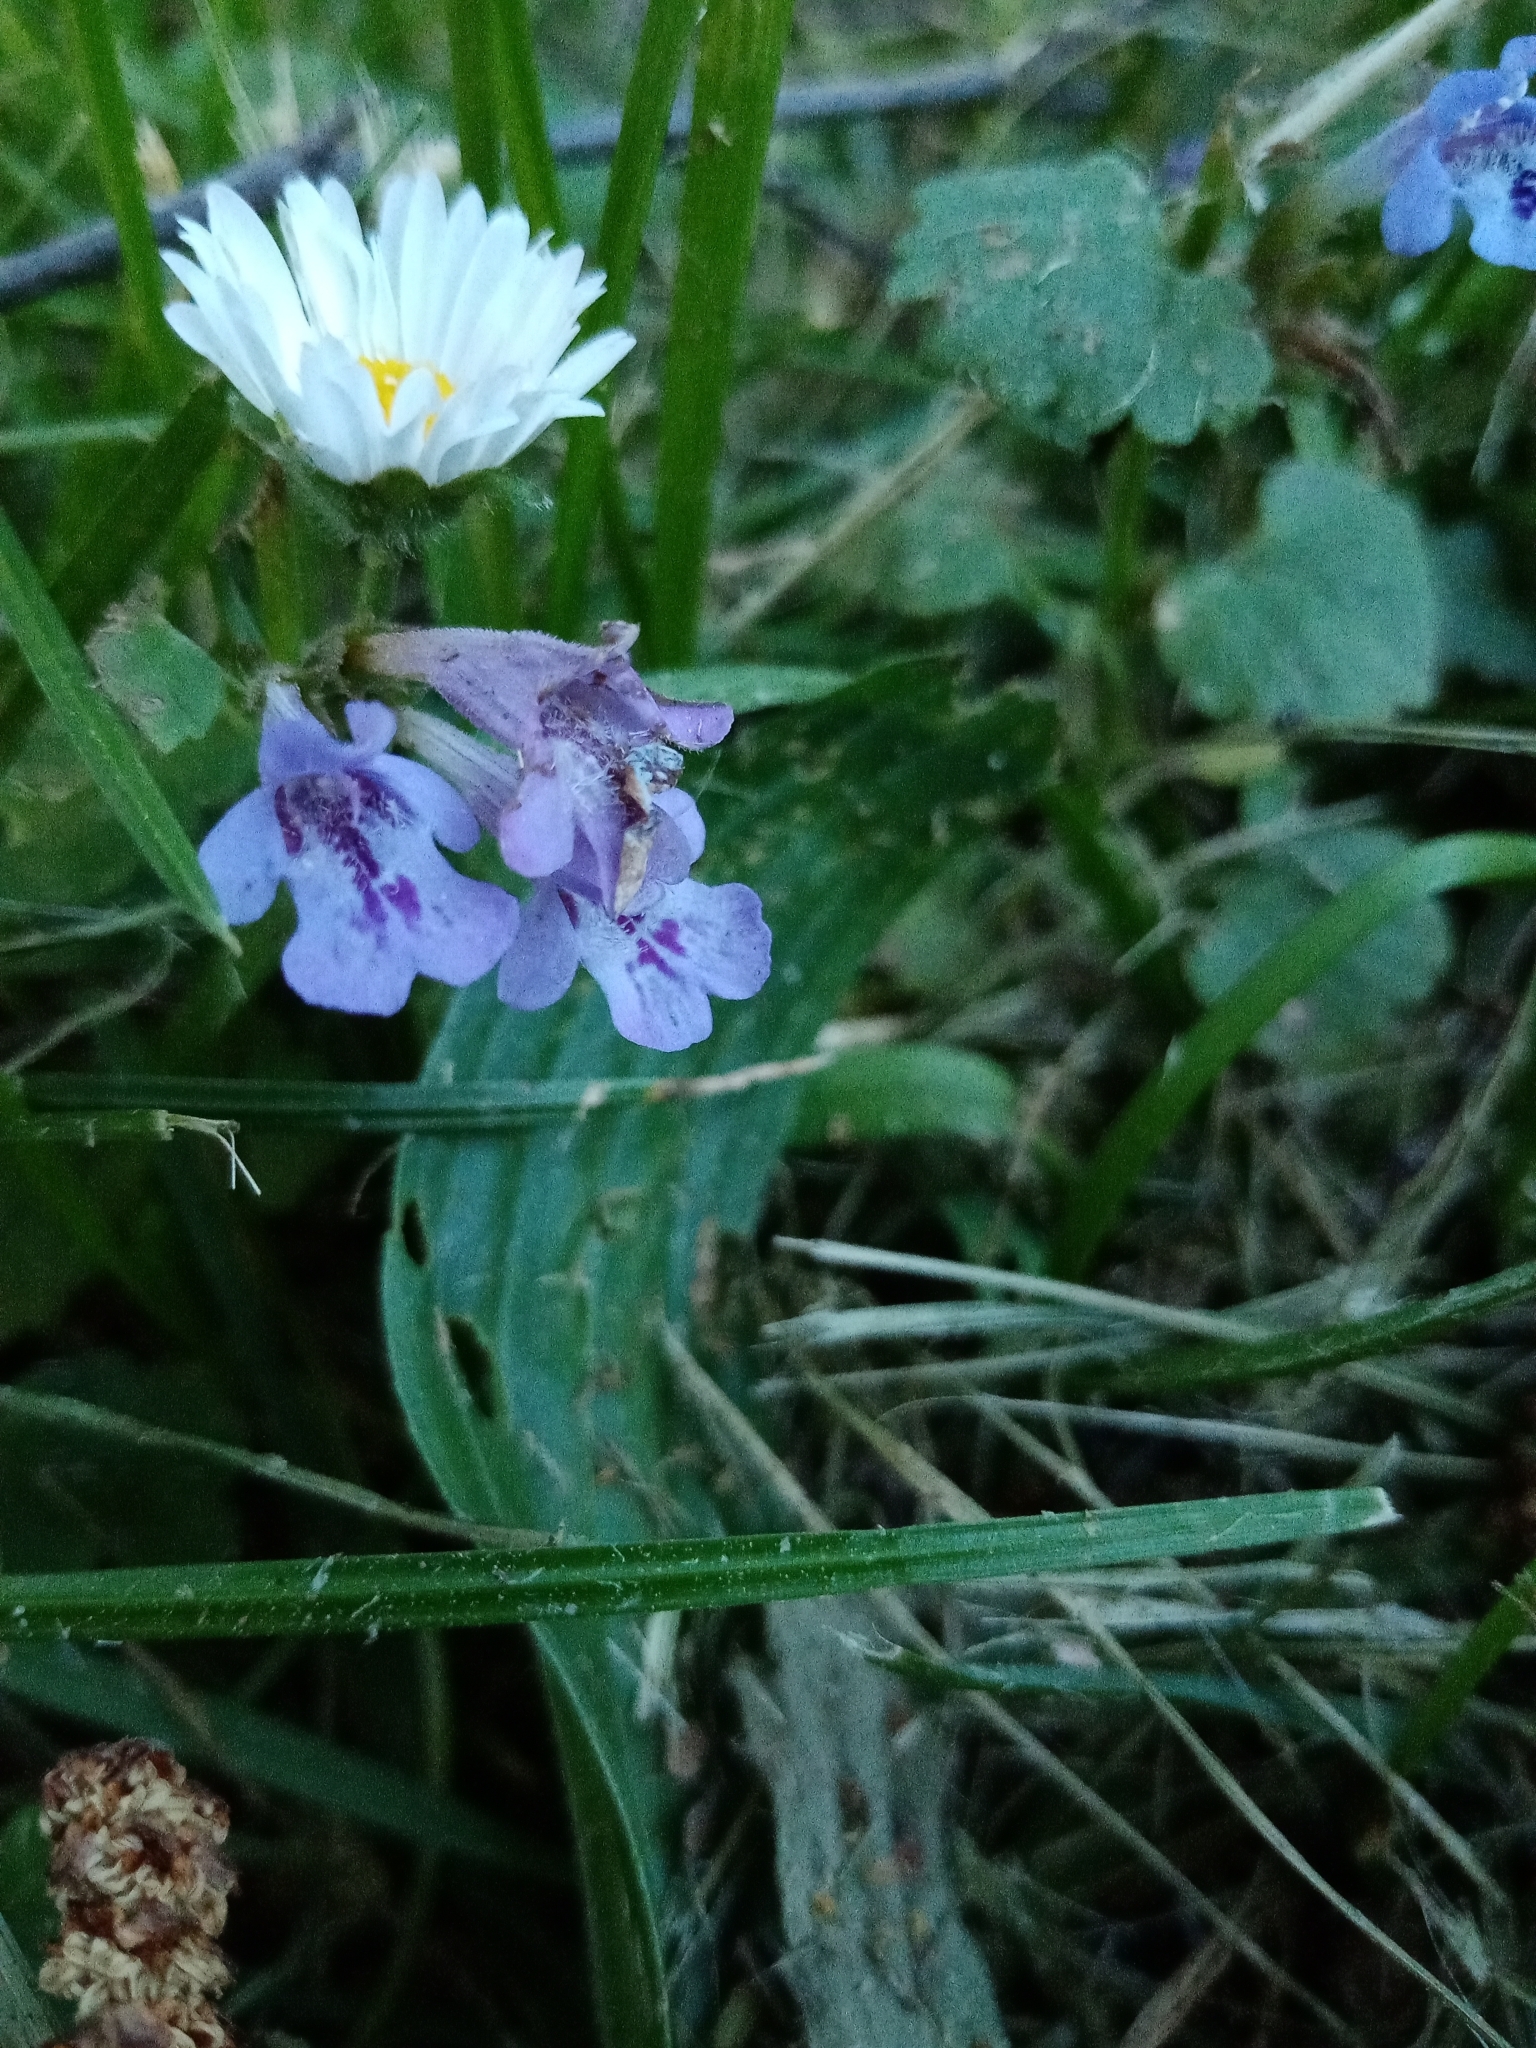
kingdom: Plantae
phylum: Tracheophyta
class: Magnoliopsida
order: Lamiales
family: Lamiaceae
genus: Glechoma
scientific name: Glechoma hederacea
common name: Ground ivy
